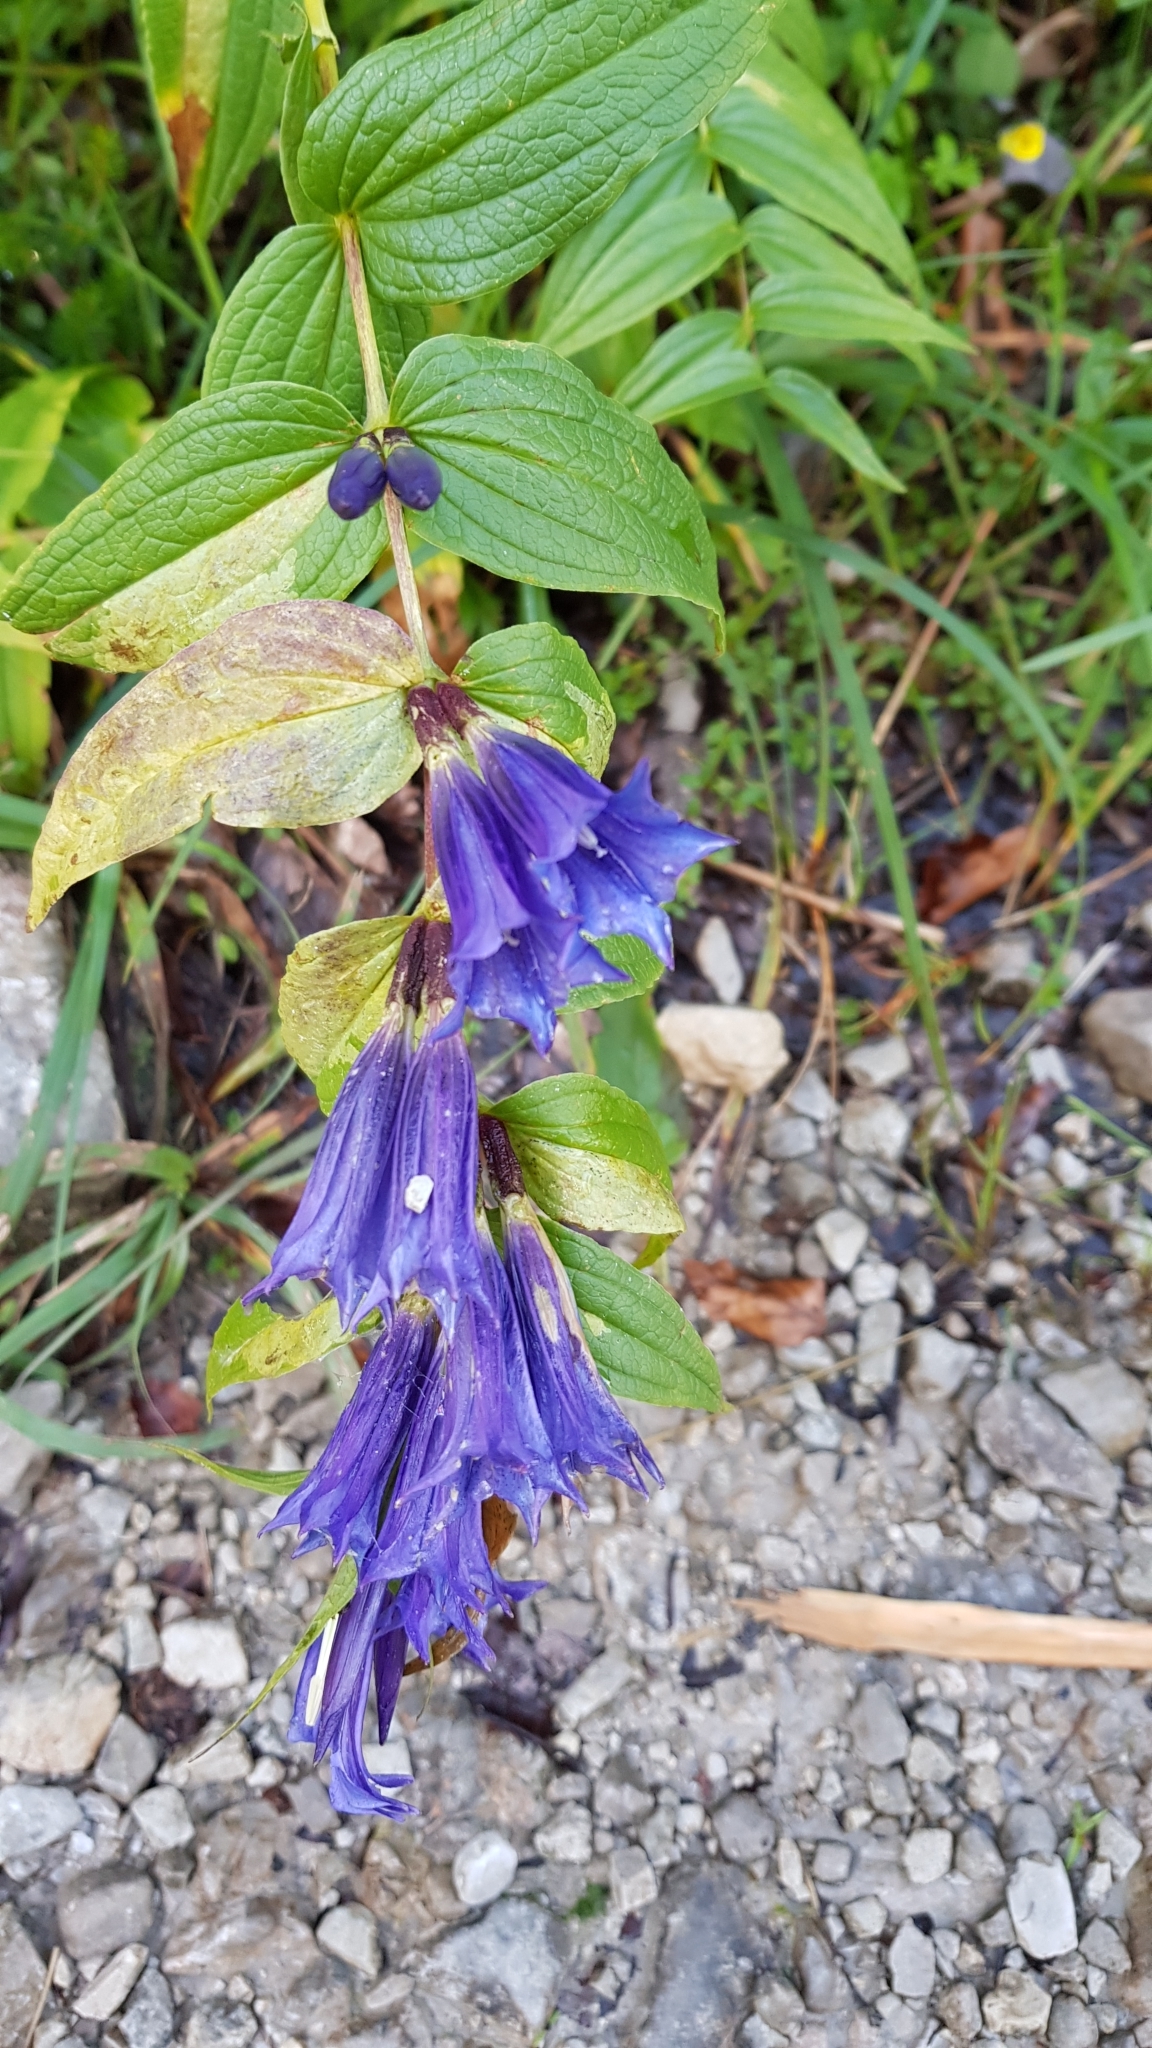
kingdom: Plantae
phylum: Tracheophyta
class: Magnoliopsida
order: Gentianales
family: Gentianaceae
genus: Gentiana
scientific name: Gentiana asclepiadea
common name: Willow gentian
